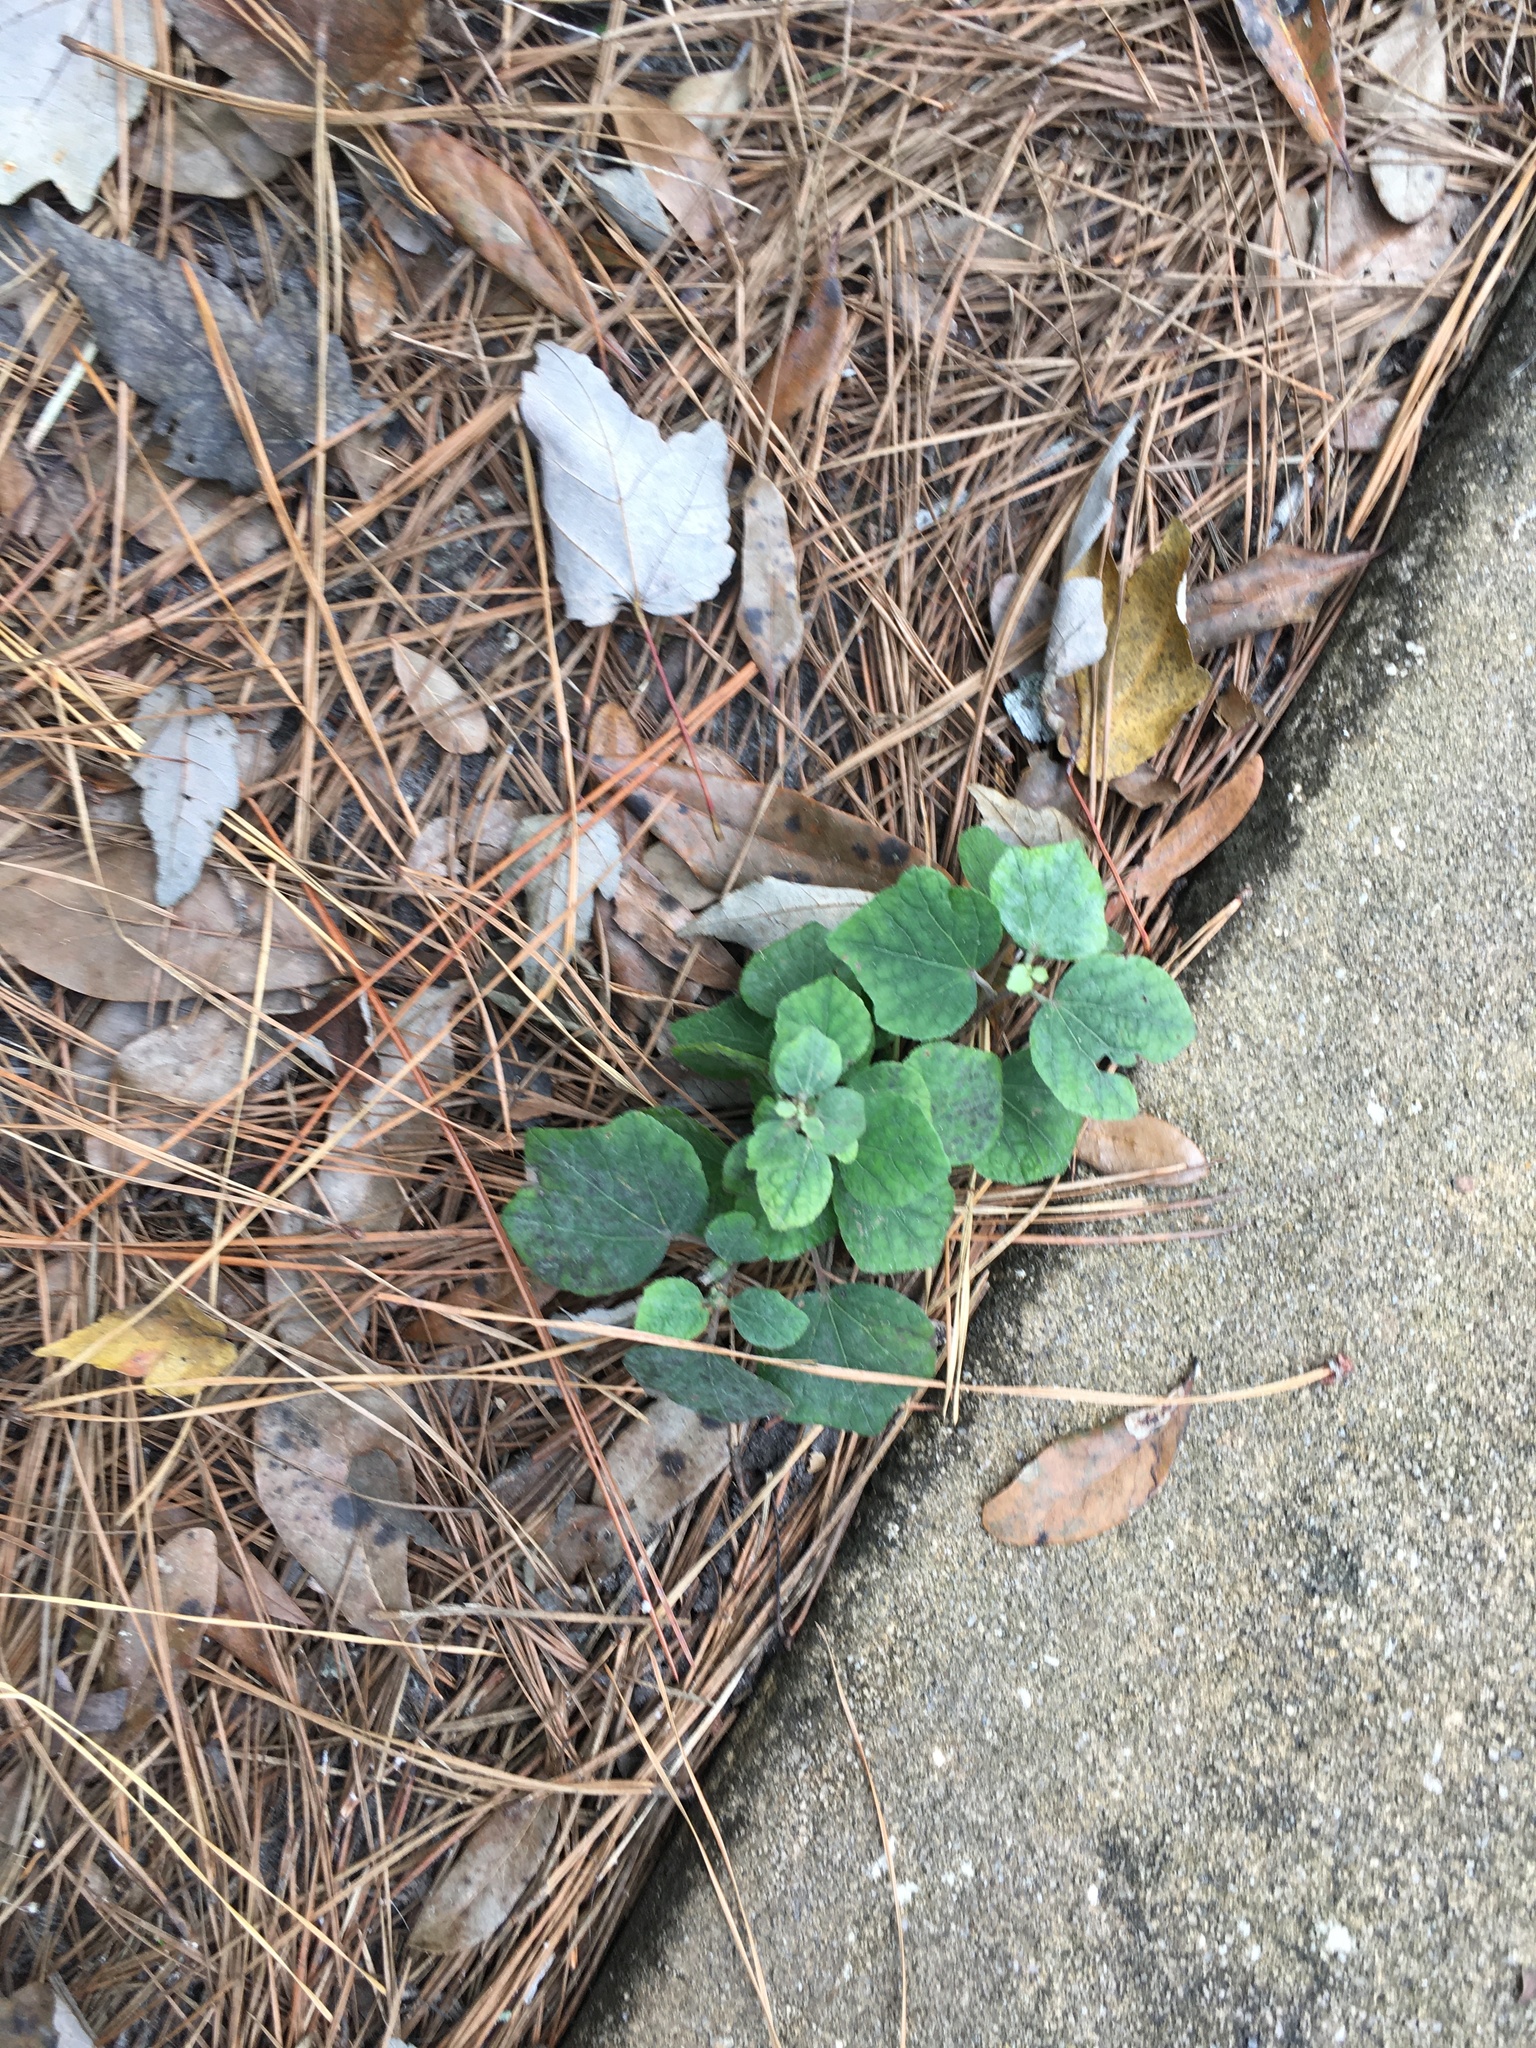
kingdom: Plantae
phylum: Tracheophyta
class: Magnoliopsida
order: Malvales
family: Malvaceae
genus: Urena
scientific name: Urena lobata
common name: Caesarweed
